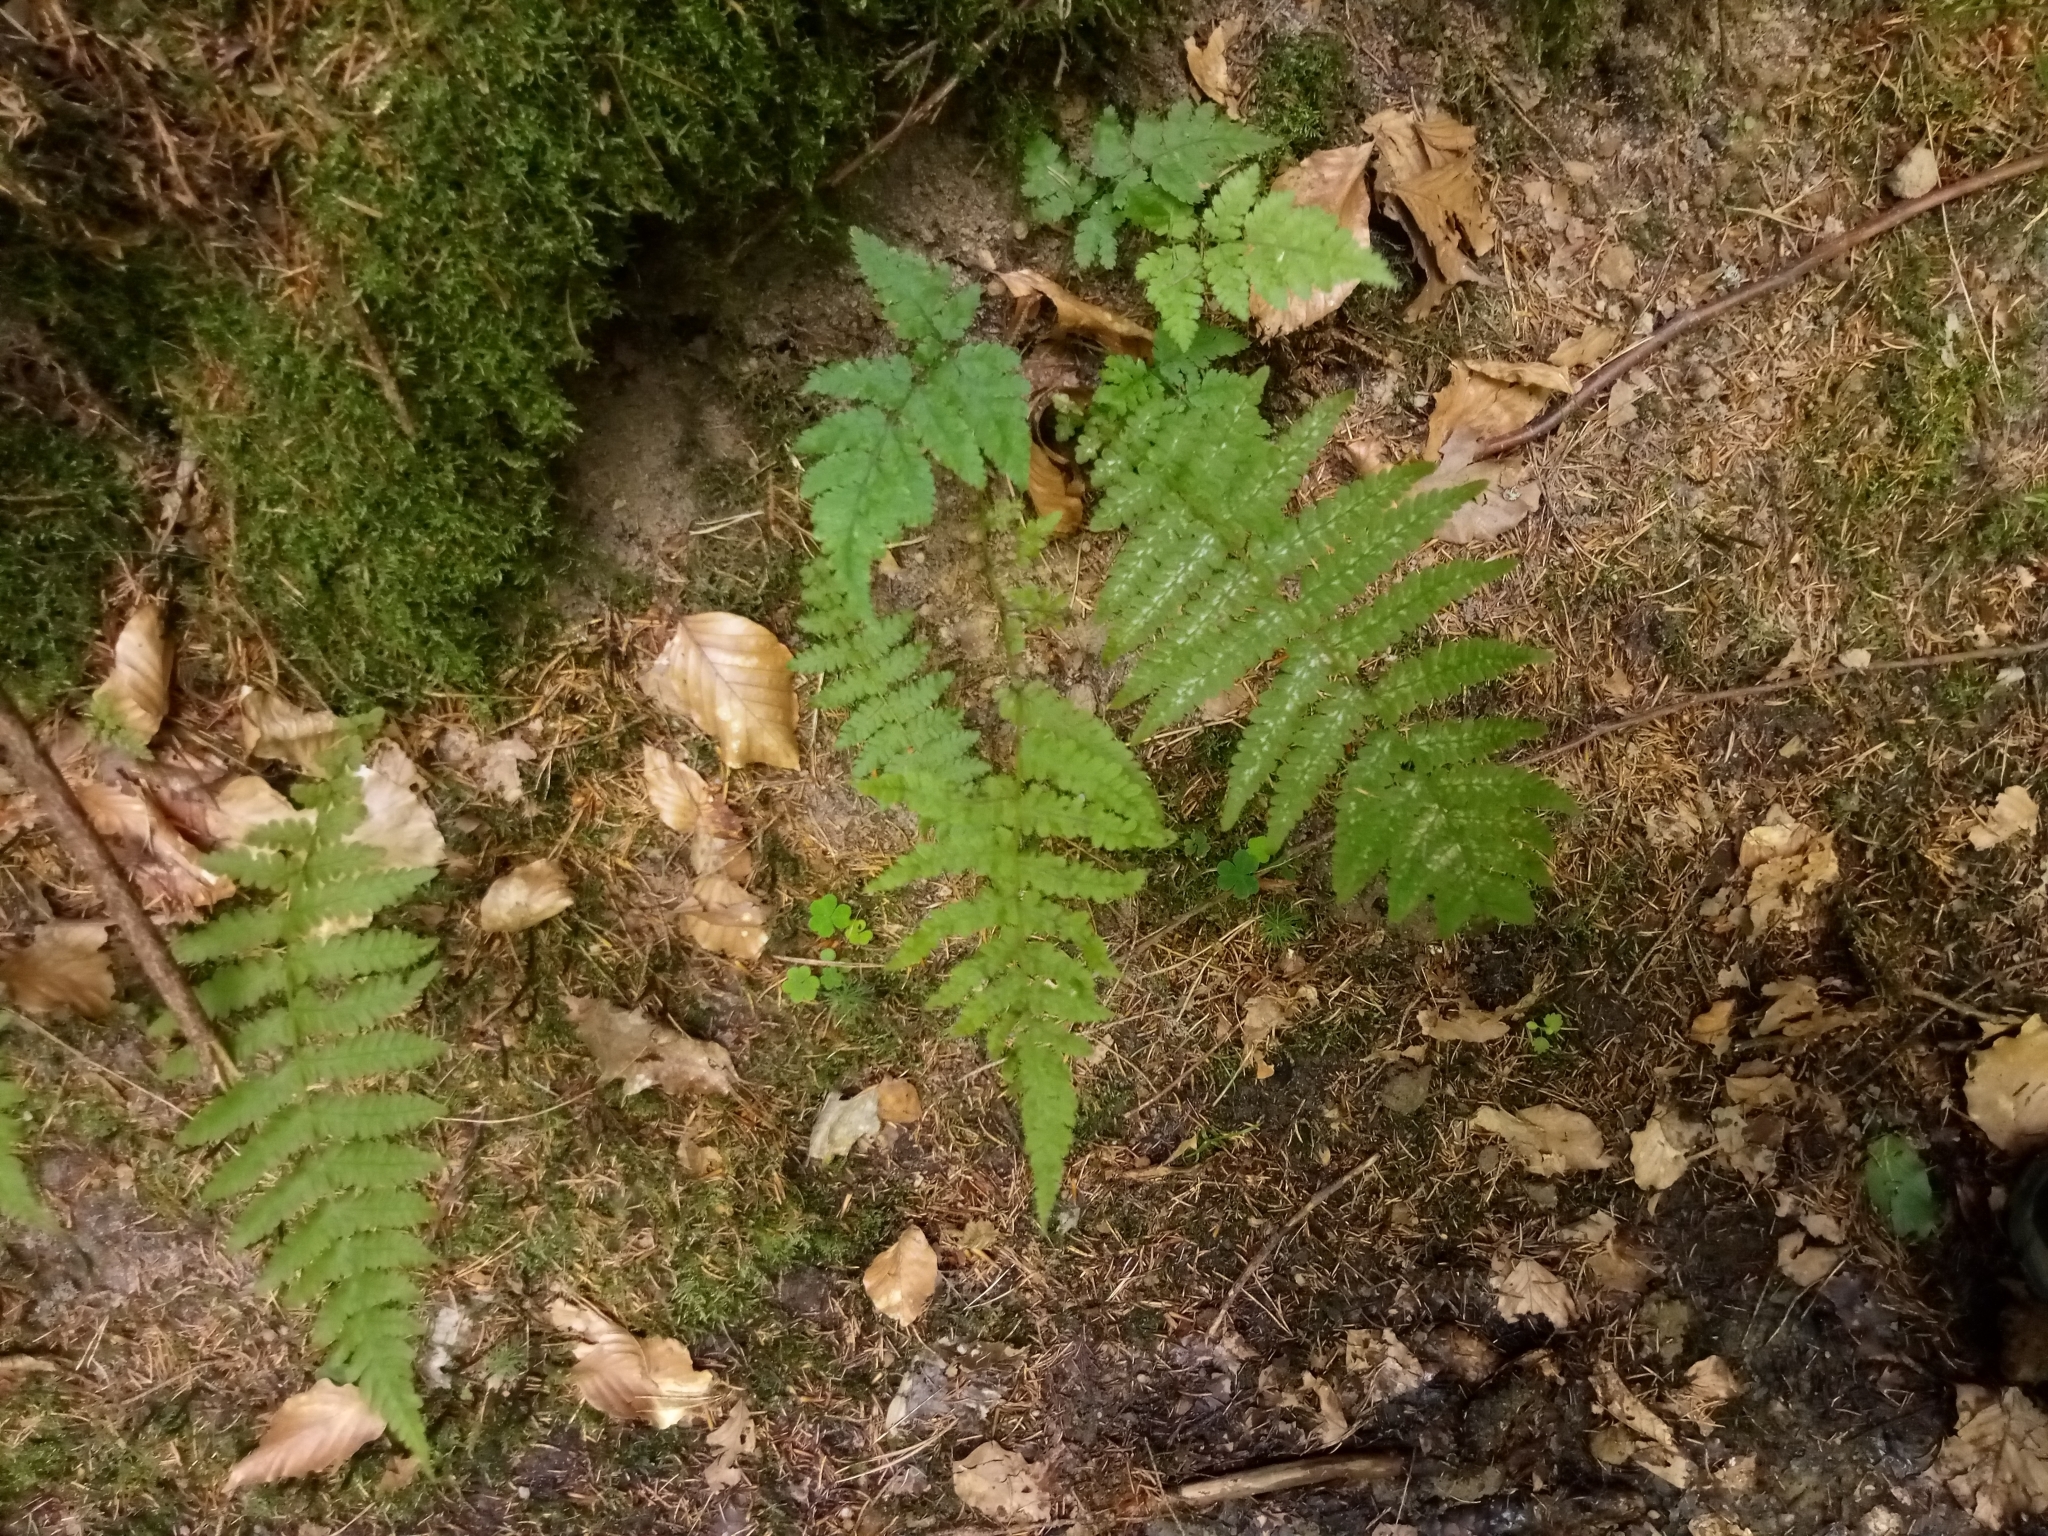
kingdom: Plantae
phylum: Tracheophyta
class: Polypodiopsida
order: Polypodiales
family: Thelypteridaceae
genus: Oreopteris
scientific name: Oreopteris limbosperma
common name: Lemon-scented fern
